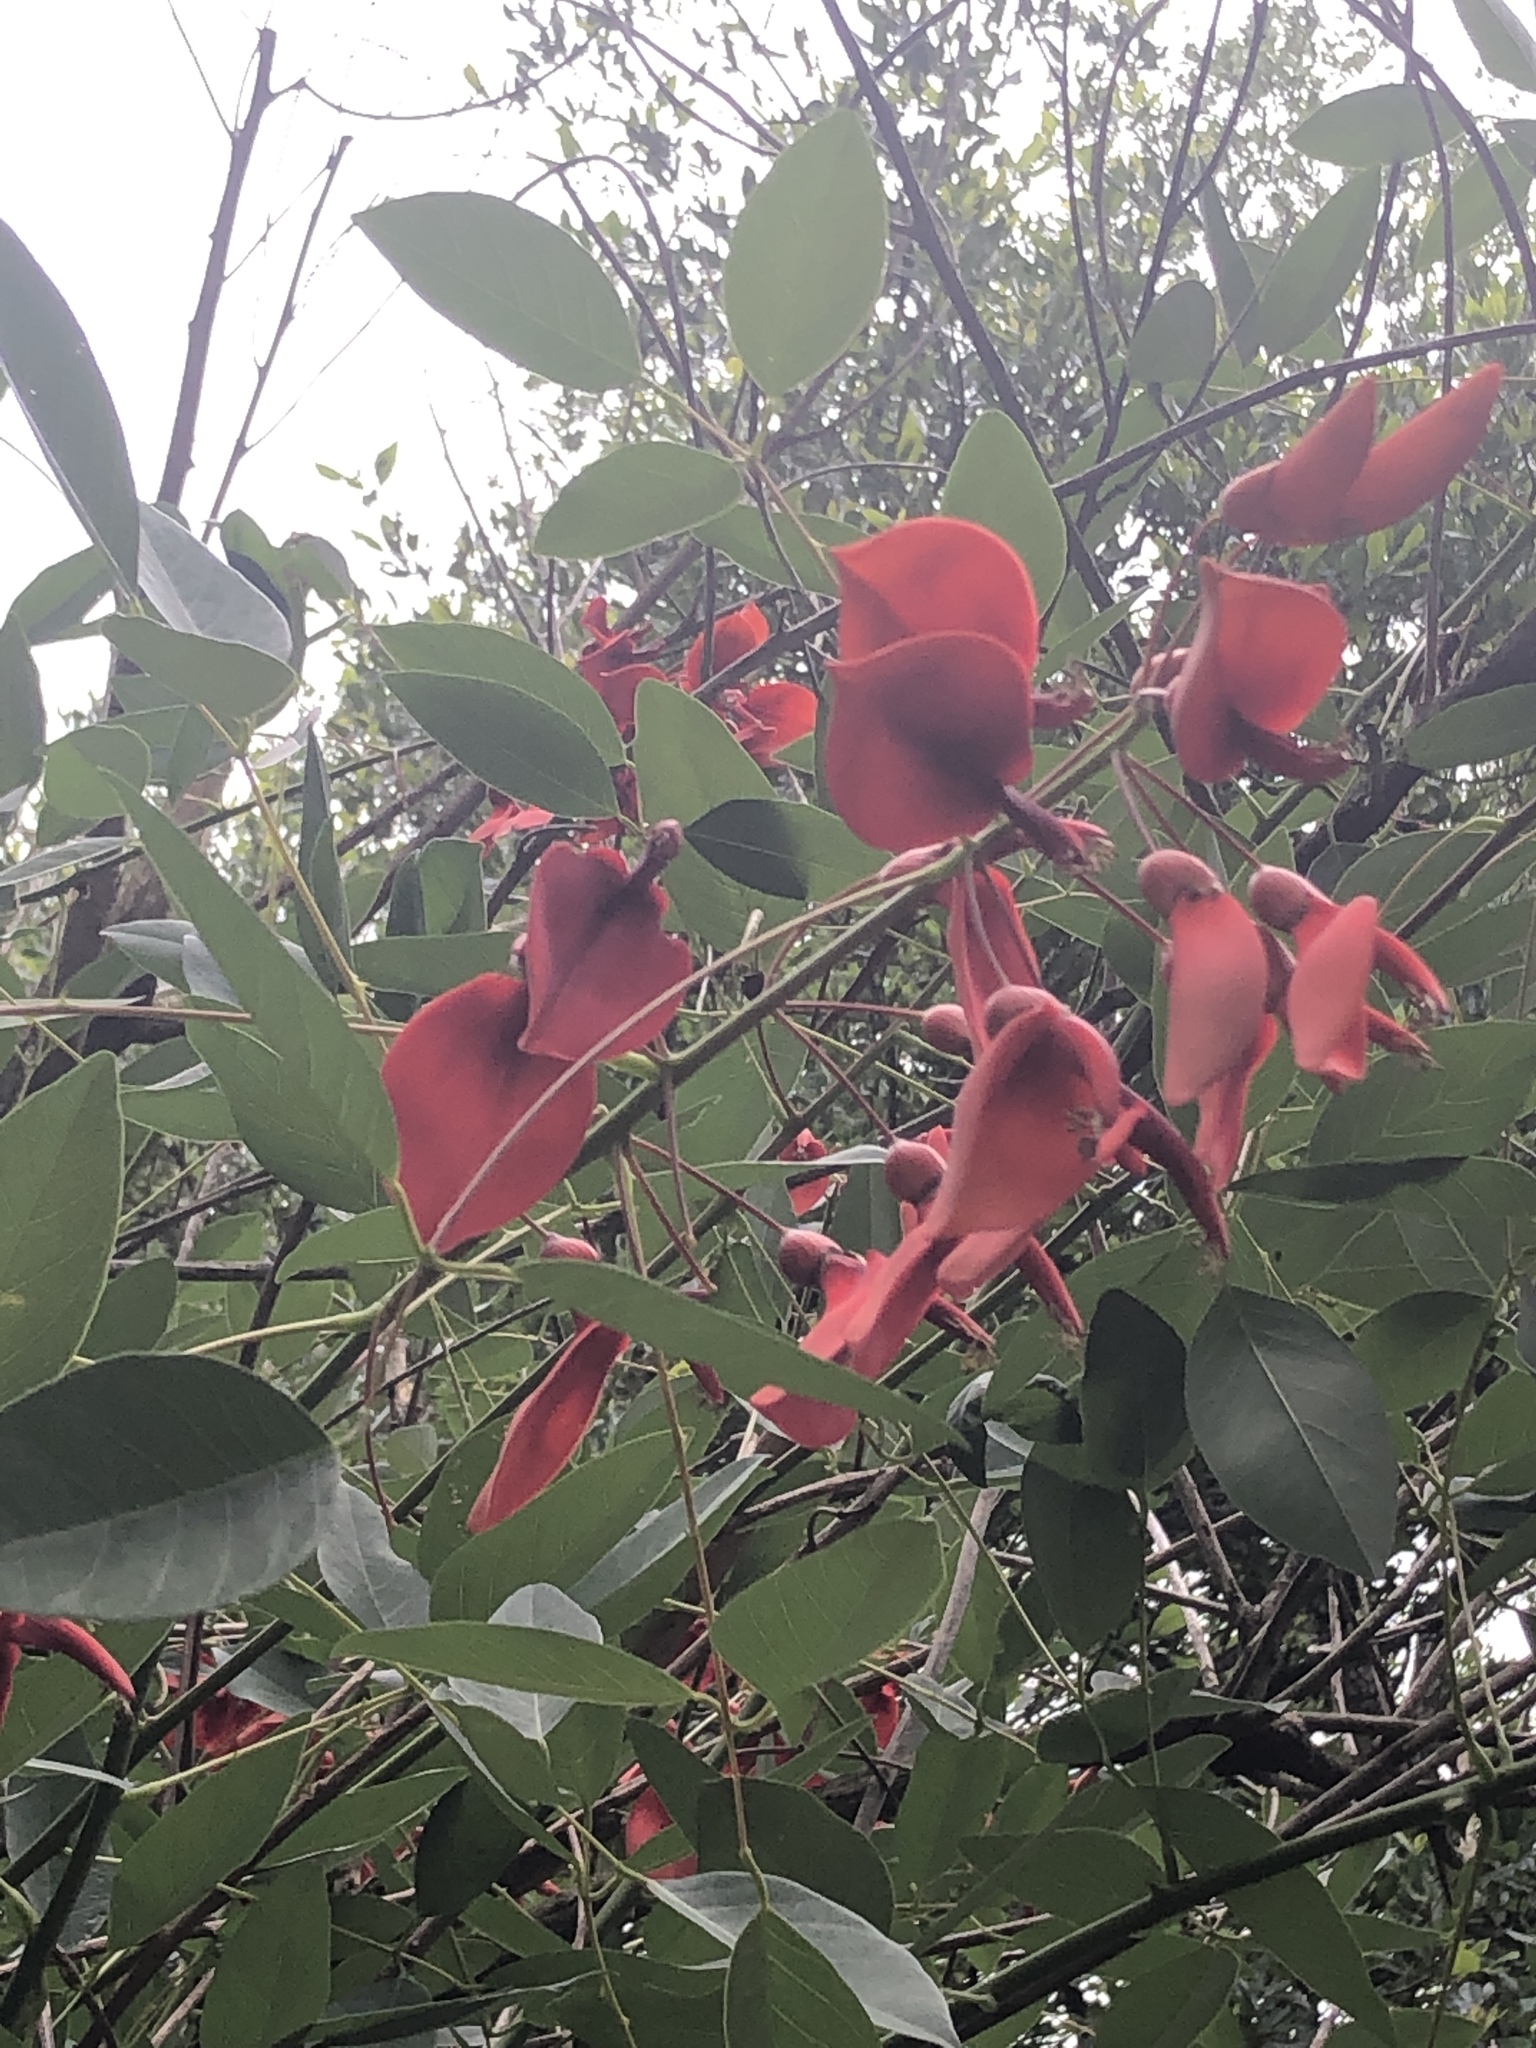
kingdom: Plantae
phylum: Tracheophyta
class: Magnoliopsida
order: Fabales
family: Fabaceae
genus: Erythrina
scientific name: Erythrina crista-galli
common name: Cockspur coral tree
